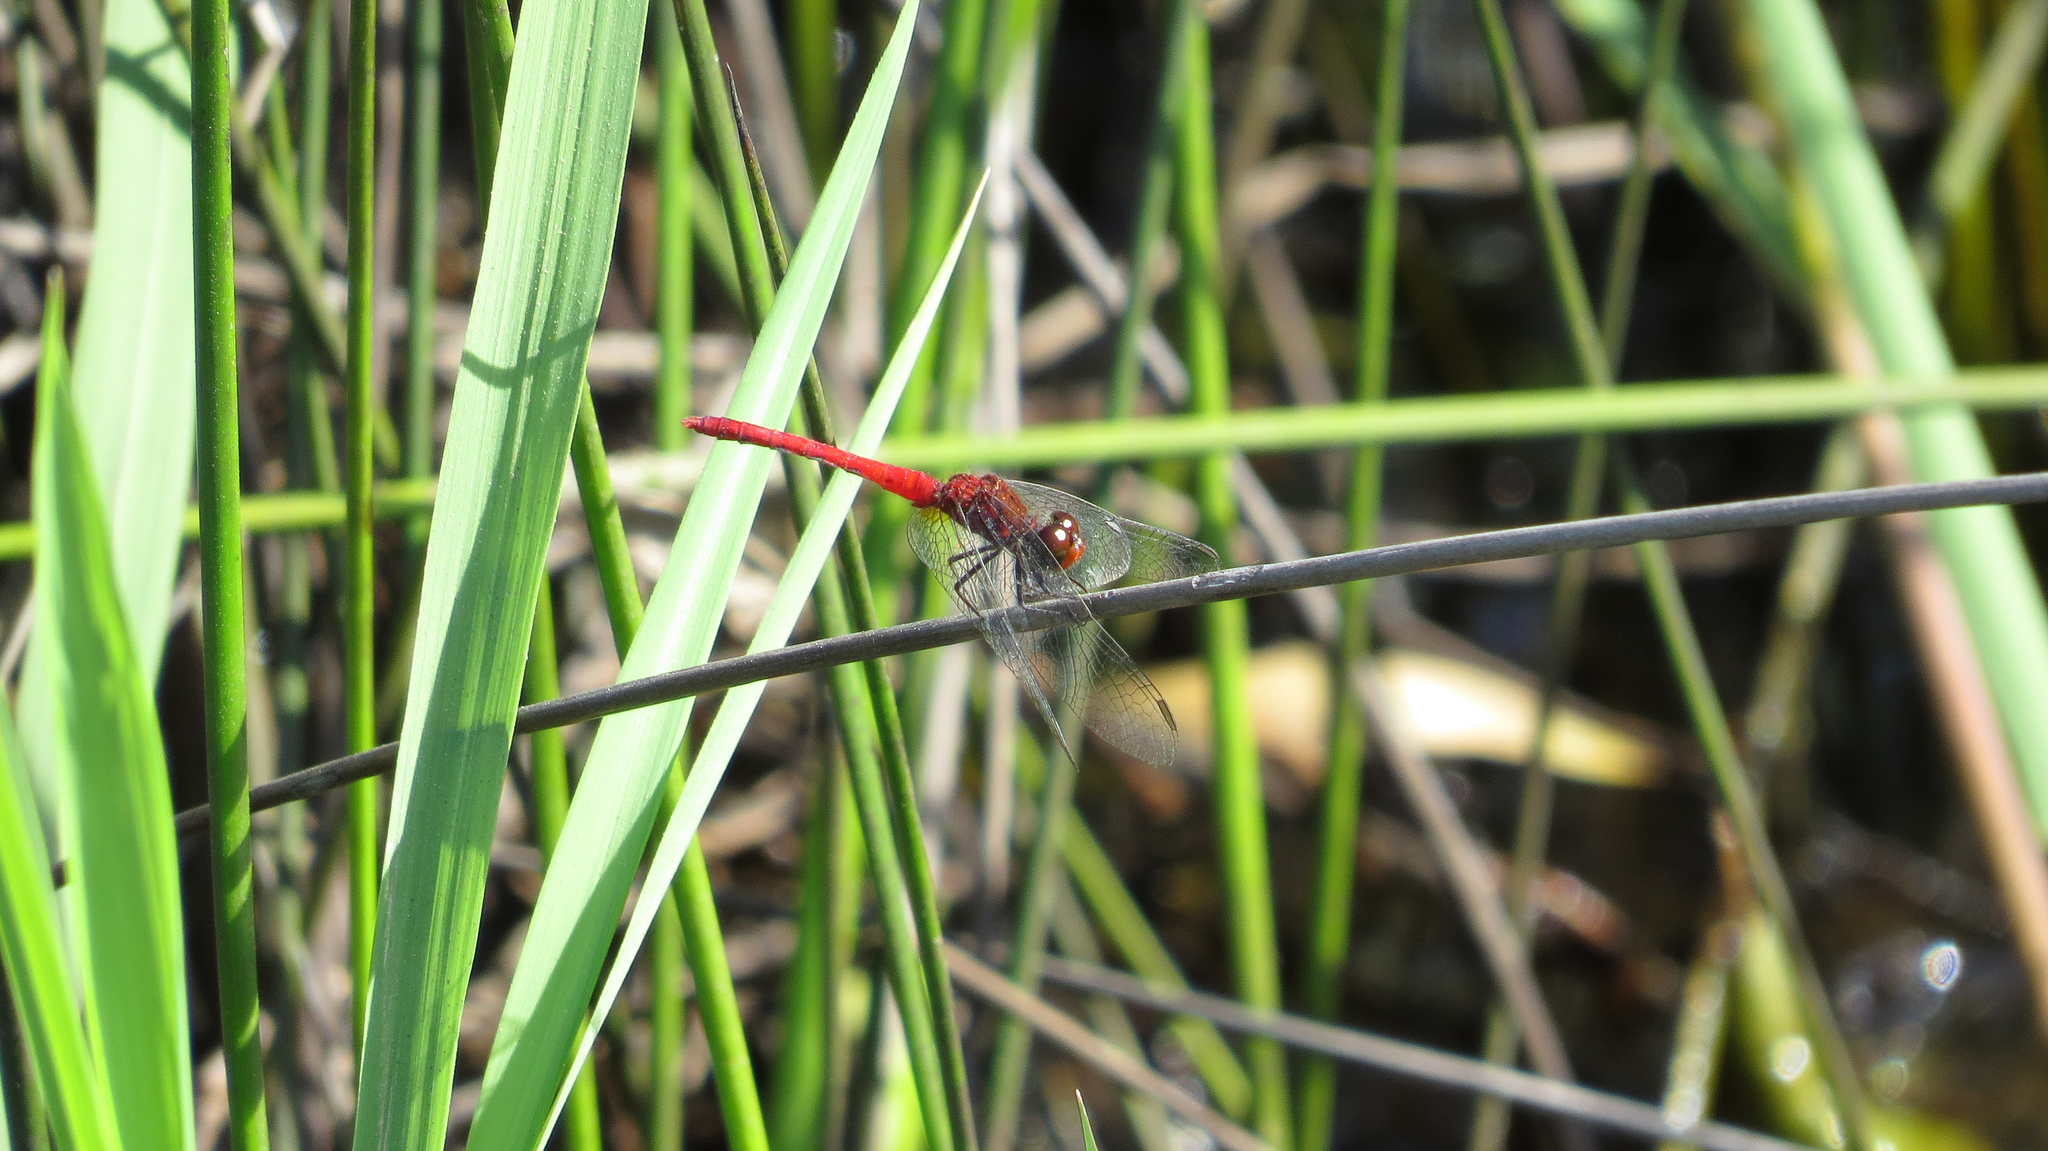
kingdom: Animalia
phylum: Arthropoda
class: Insecta
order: Odonata
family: Libellulidae
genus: Nannodiplax
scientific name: Nannodiplax rubra
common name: Pygmy percher
